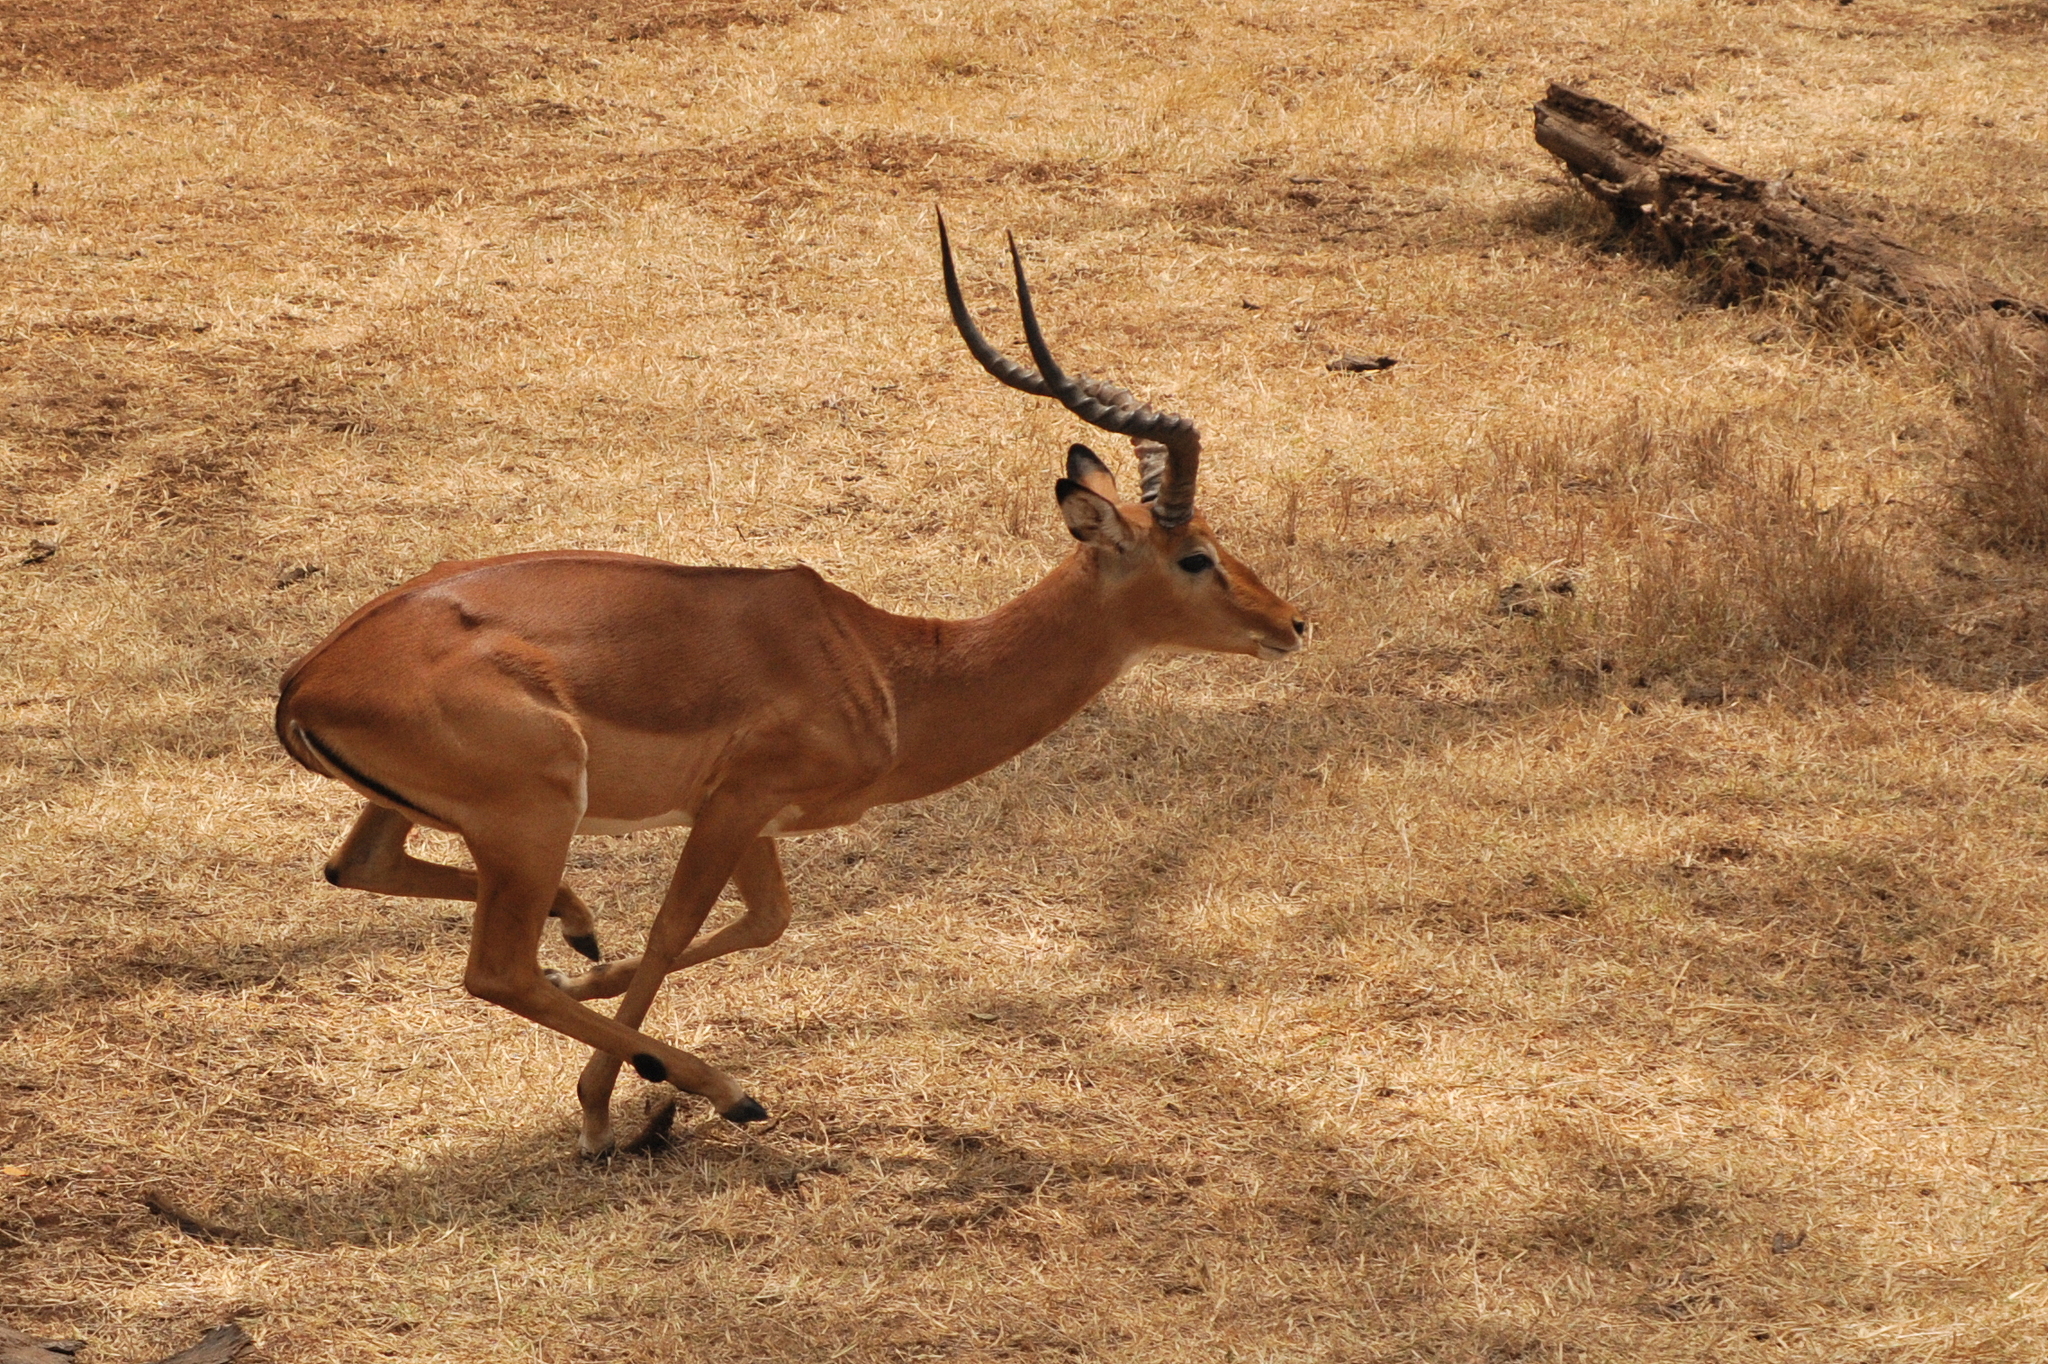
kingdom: Animalia
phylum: Chordata
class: Mammalia
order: Artiodactyla
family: Bovidae
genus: Aepyceros
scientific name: Aepyceros melampus
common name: Impala
